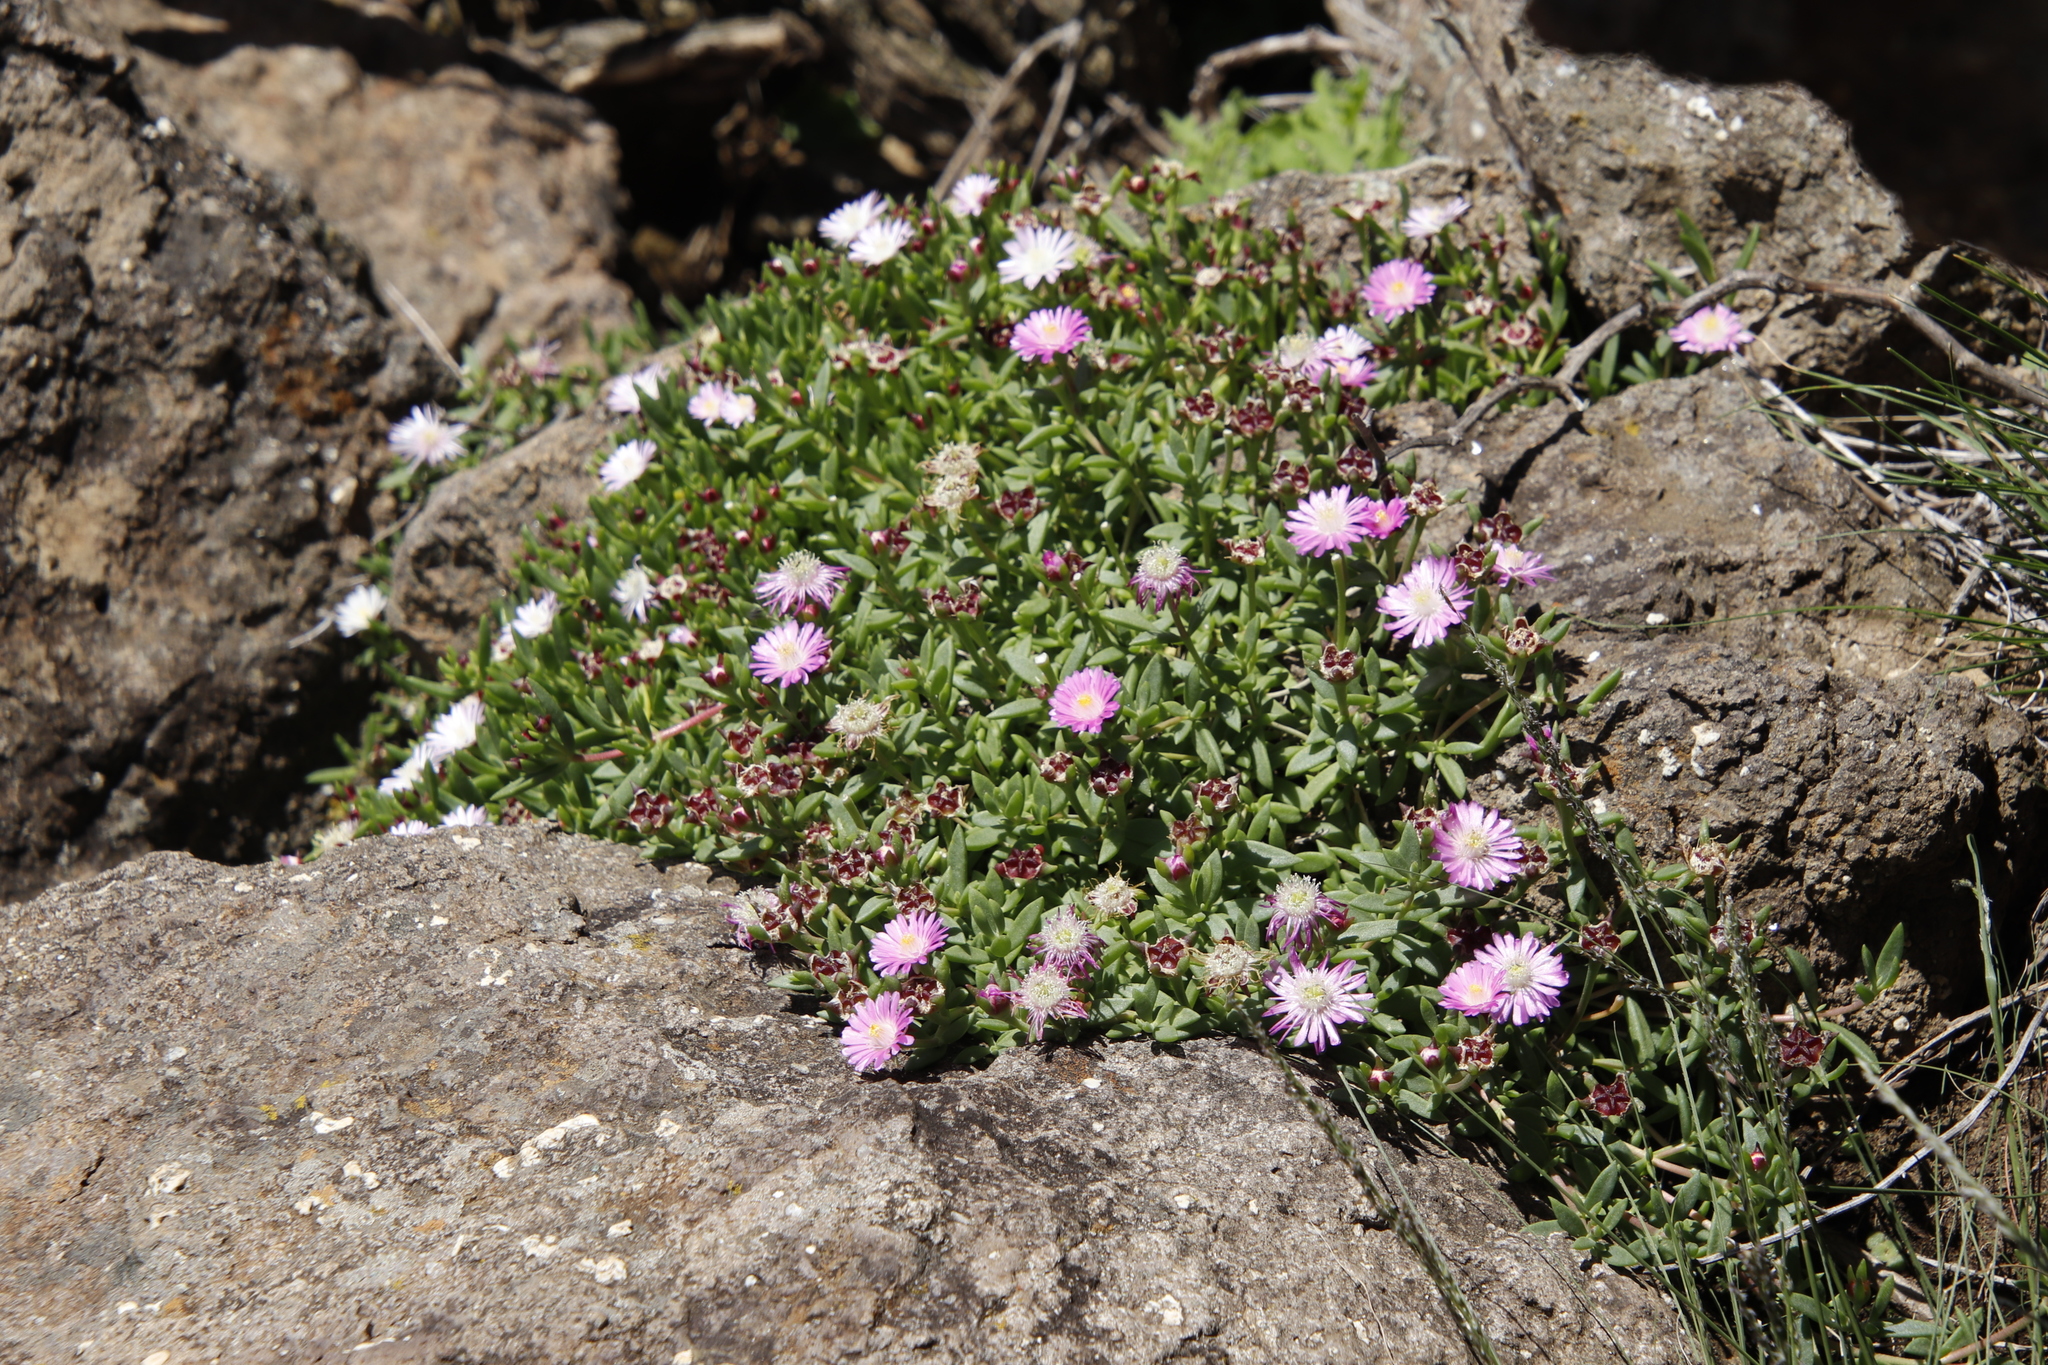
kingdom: Plantae
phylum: Tracheophyta
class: Magnoliopsida
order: Caryophyllales
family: Aizoaceae
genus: Delosperma
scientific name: Delosperma grantiae
